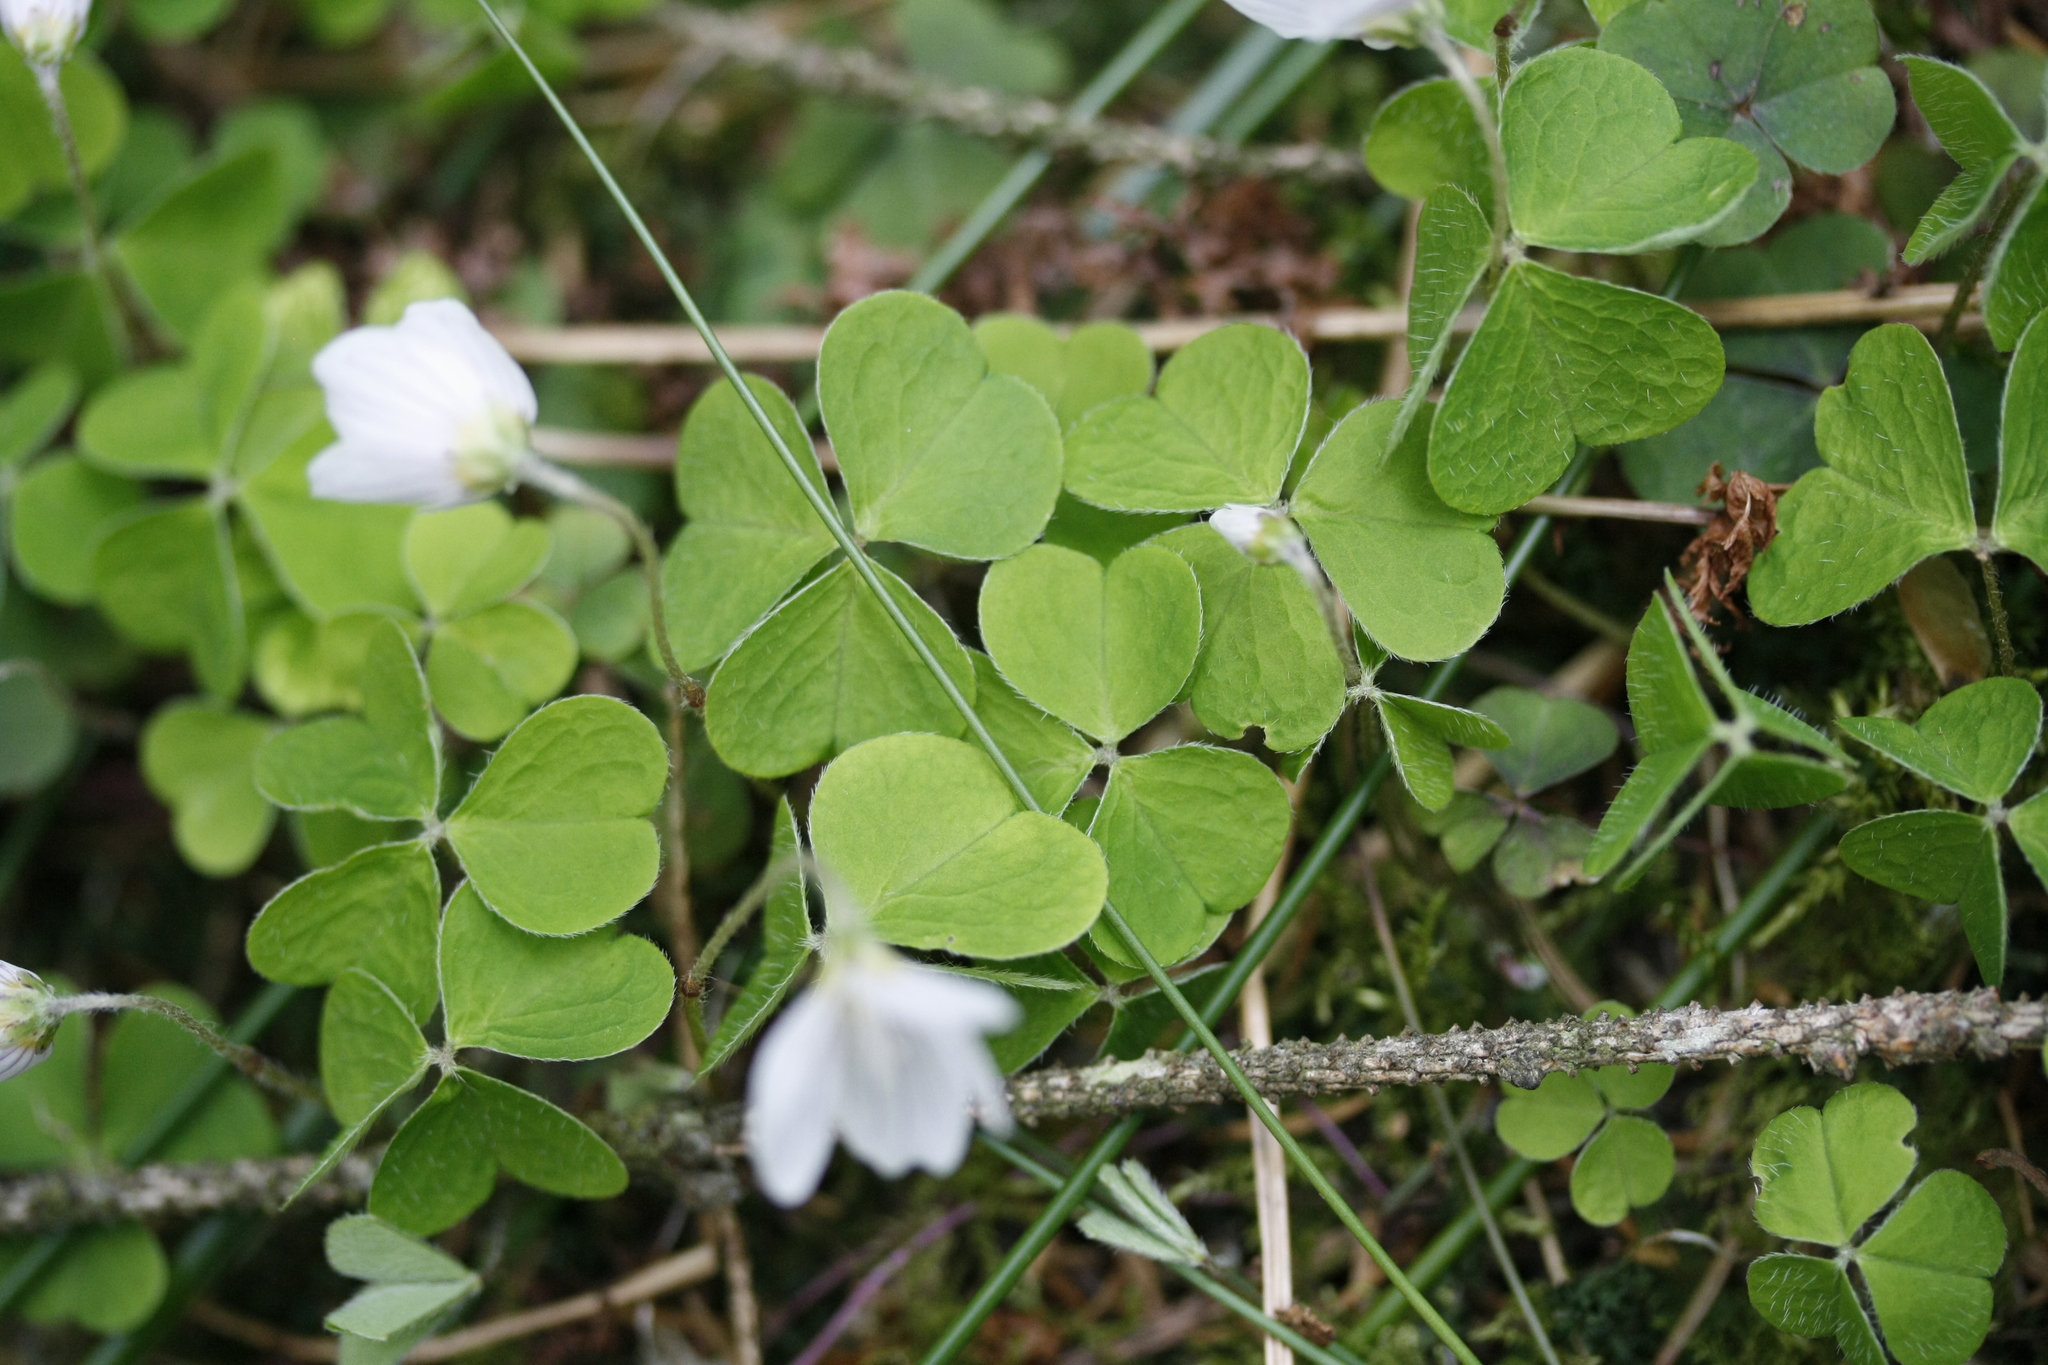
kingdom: Plantae
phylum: Tracheophyta
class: Magnoliopsida
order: Oxalidales
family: Oxalidaceae
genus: Oxalis
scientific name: Oxalis acetosella
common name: Wood-sorrel
